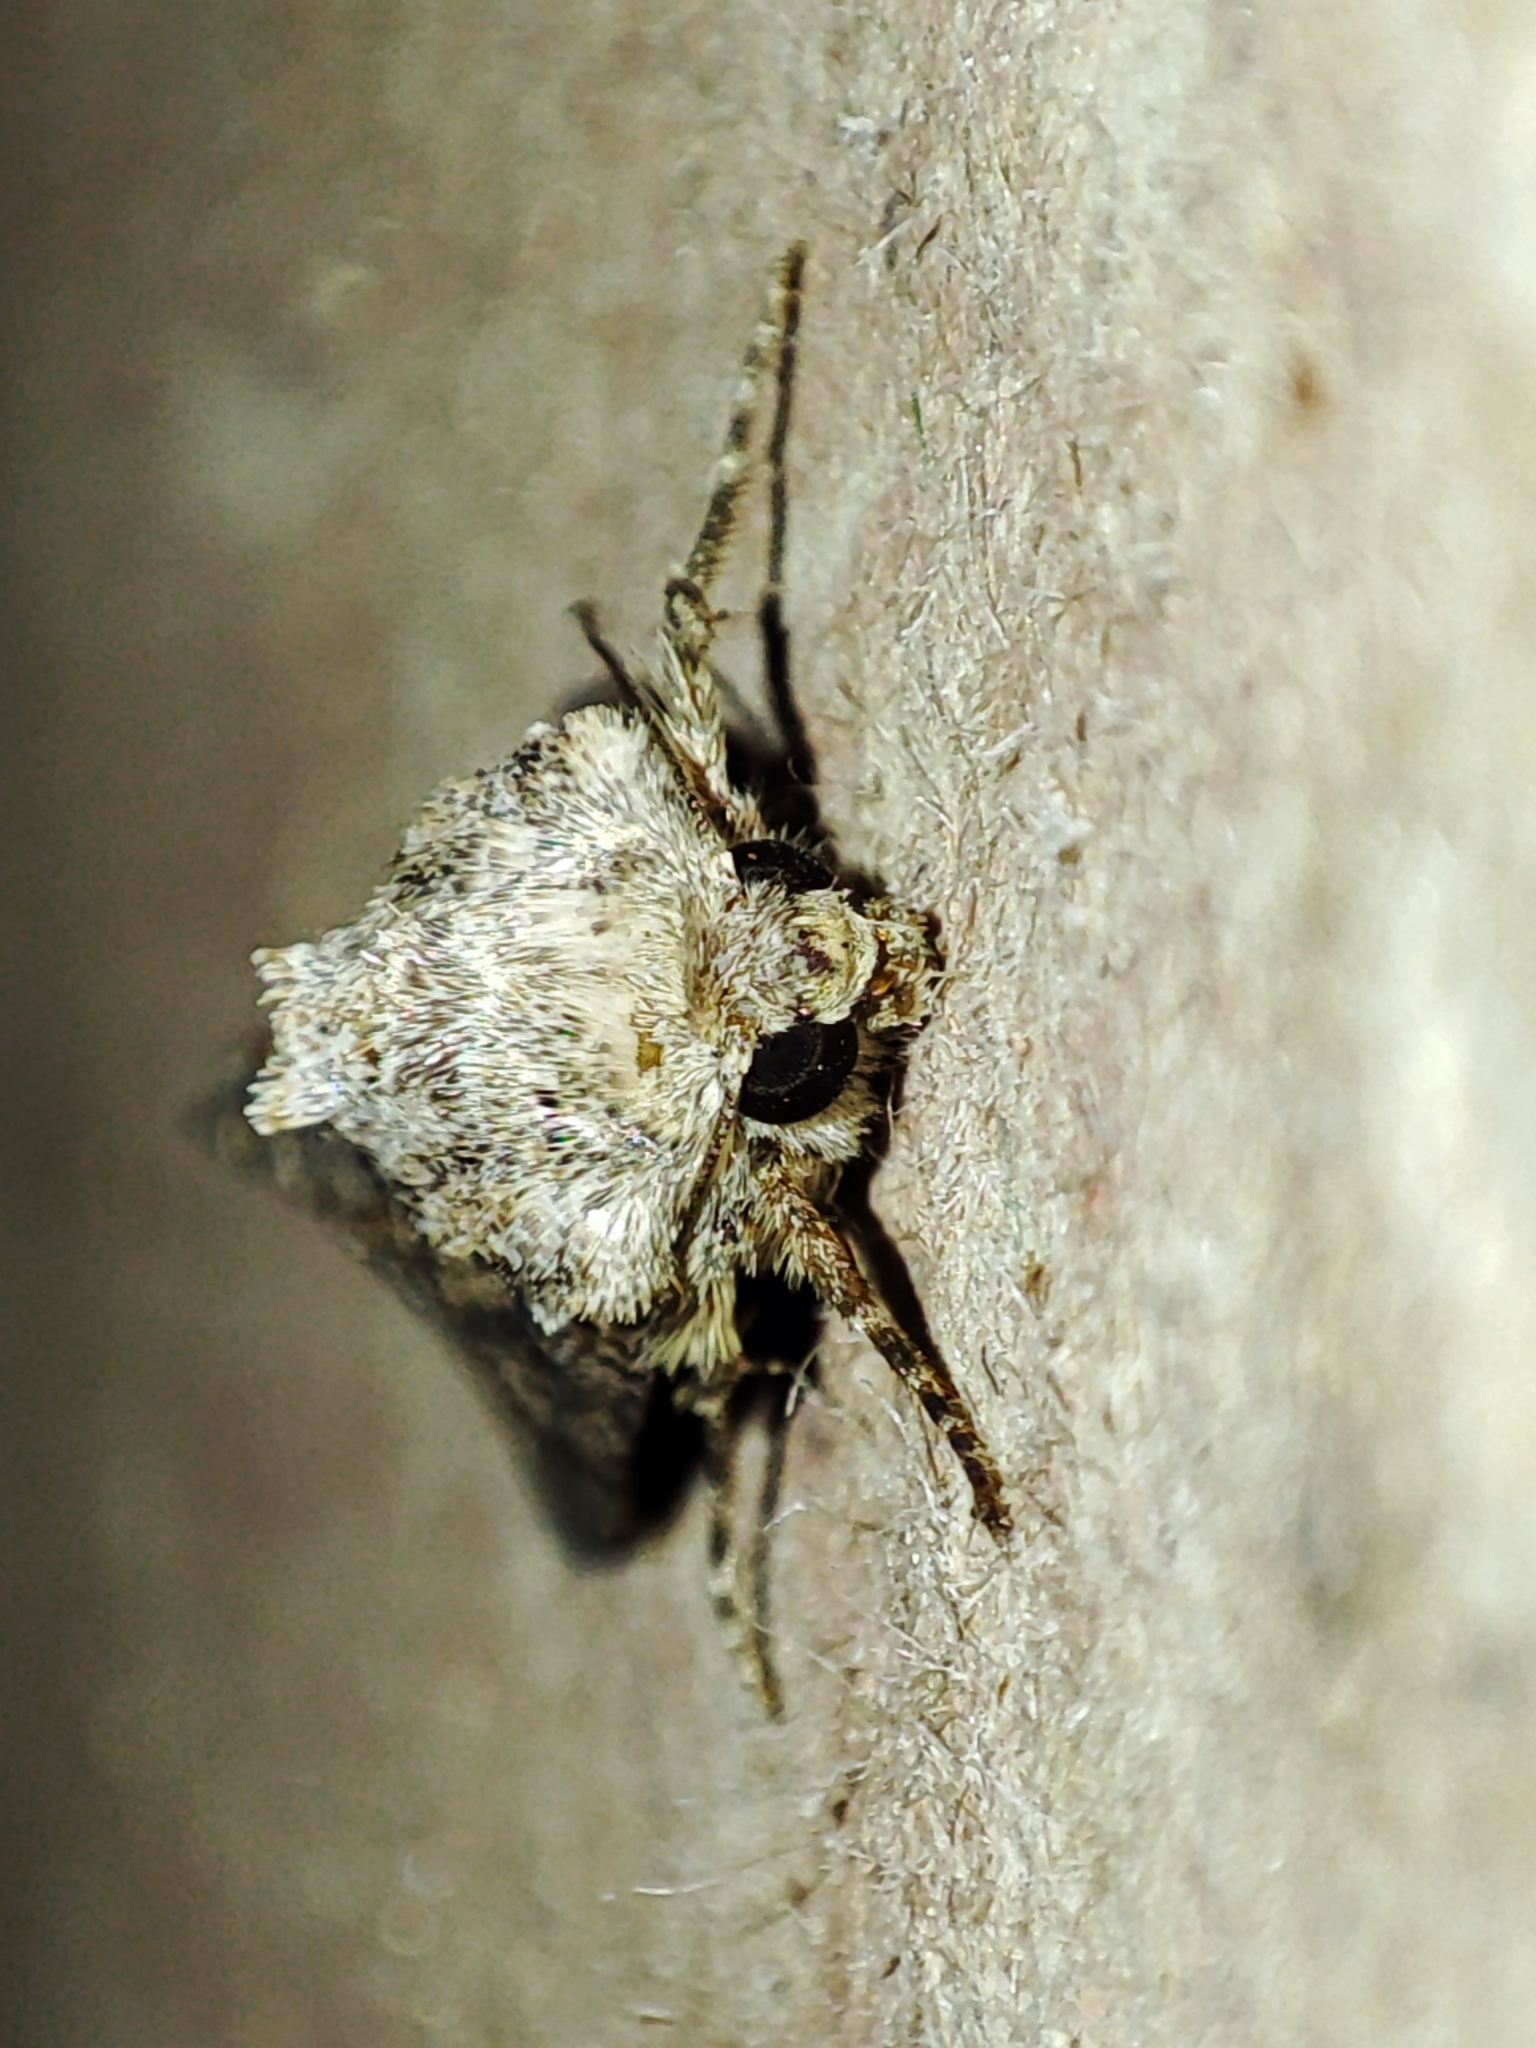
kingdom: Animalia
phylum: Arthropoda
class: Insecta
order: Lepidoptera
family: Noctuidae
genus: Anarta
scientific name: Anarta trifolii
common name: Clover cutworm moth
